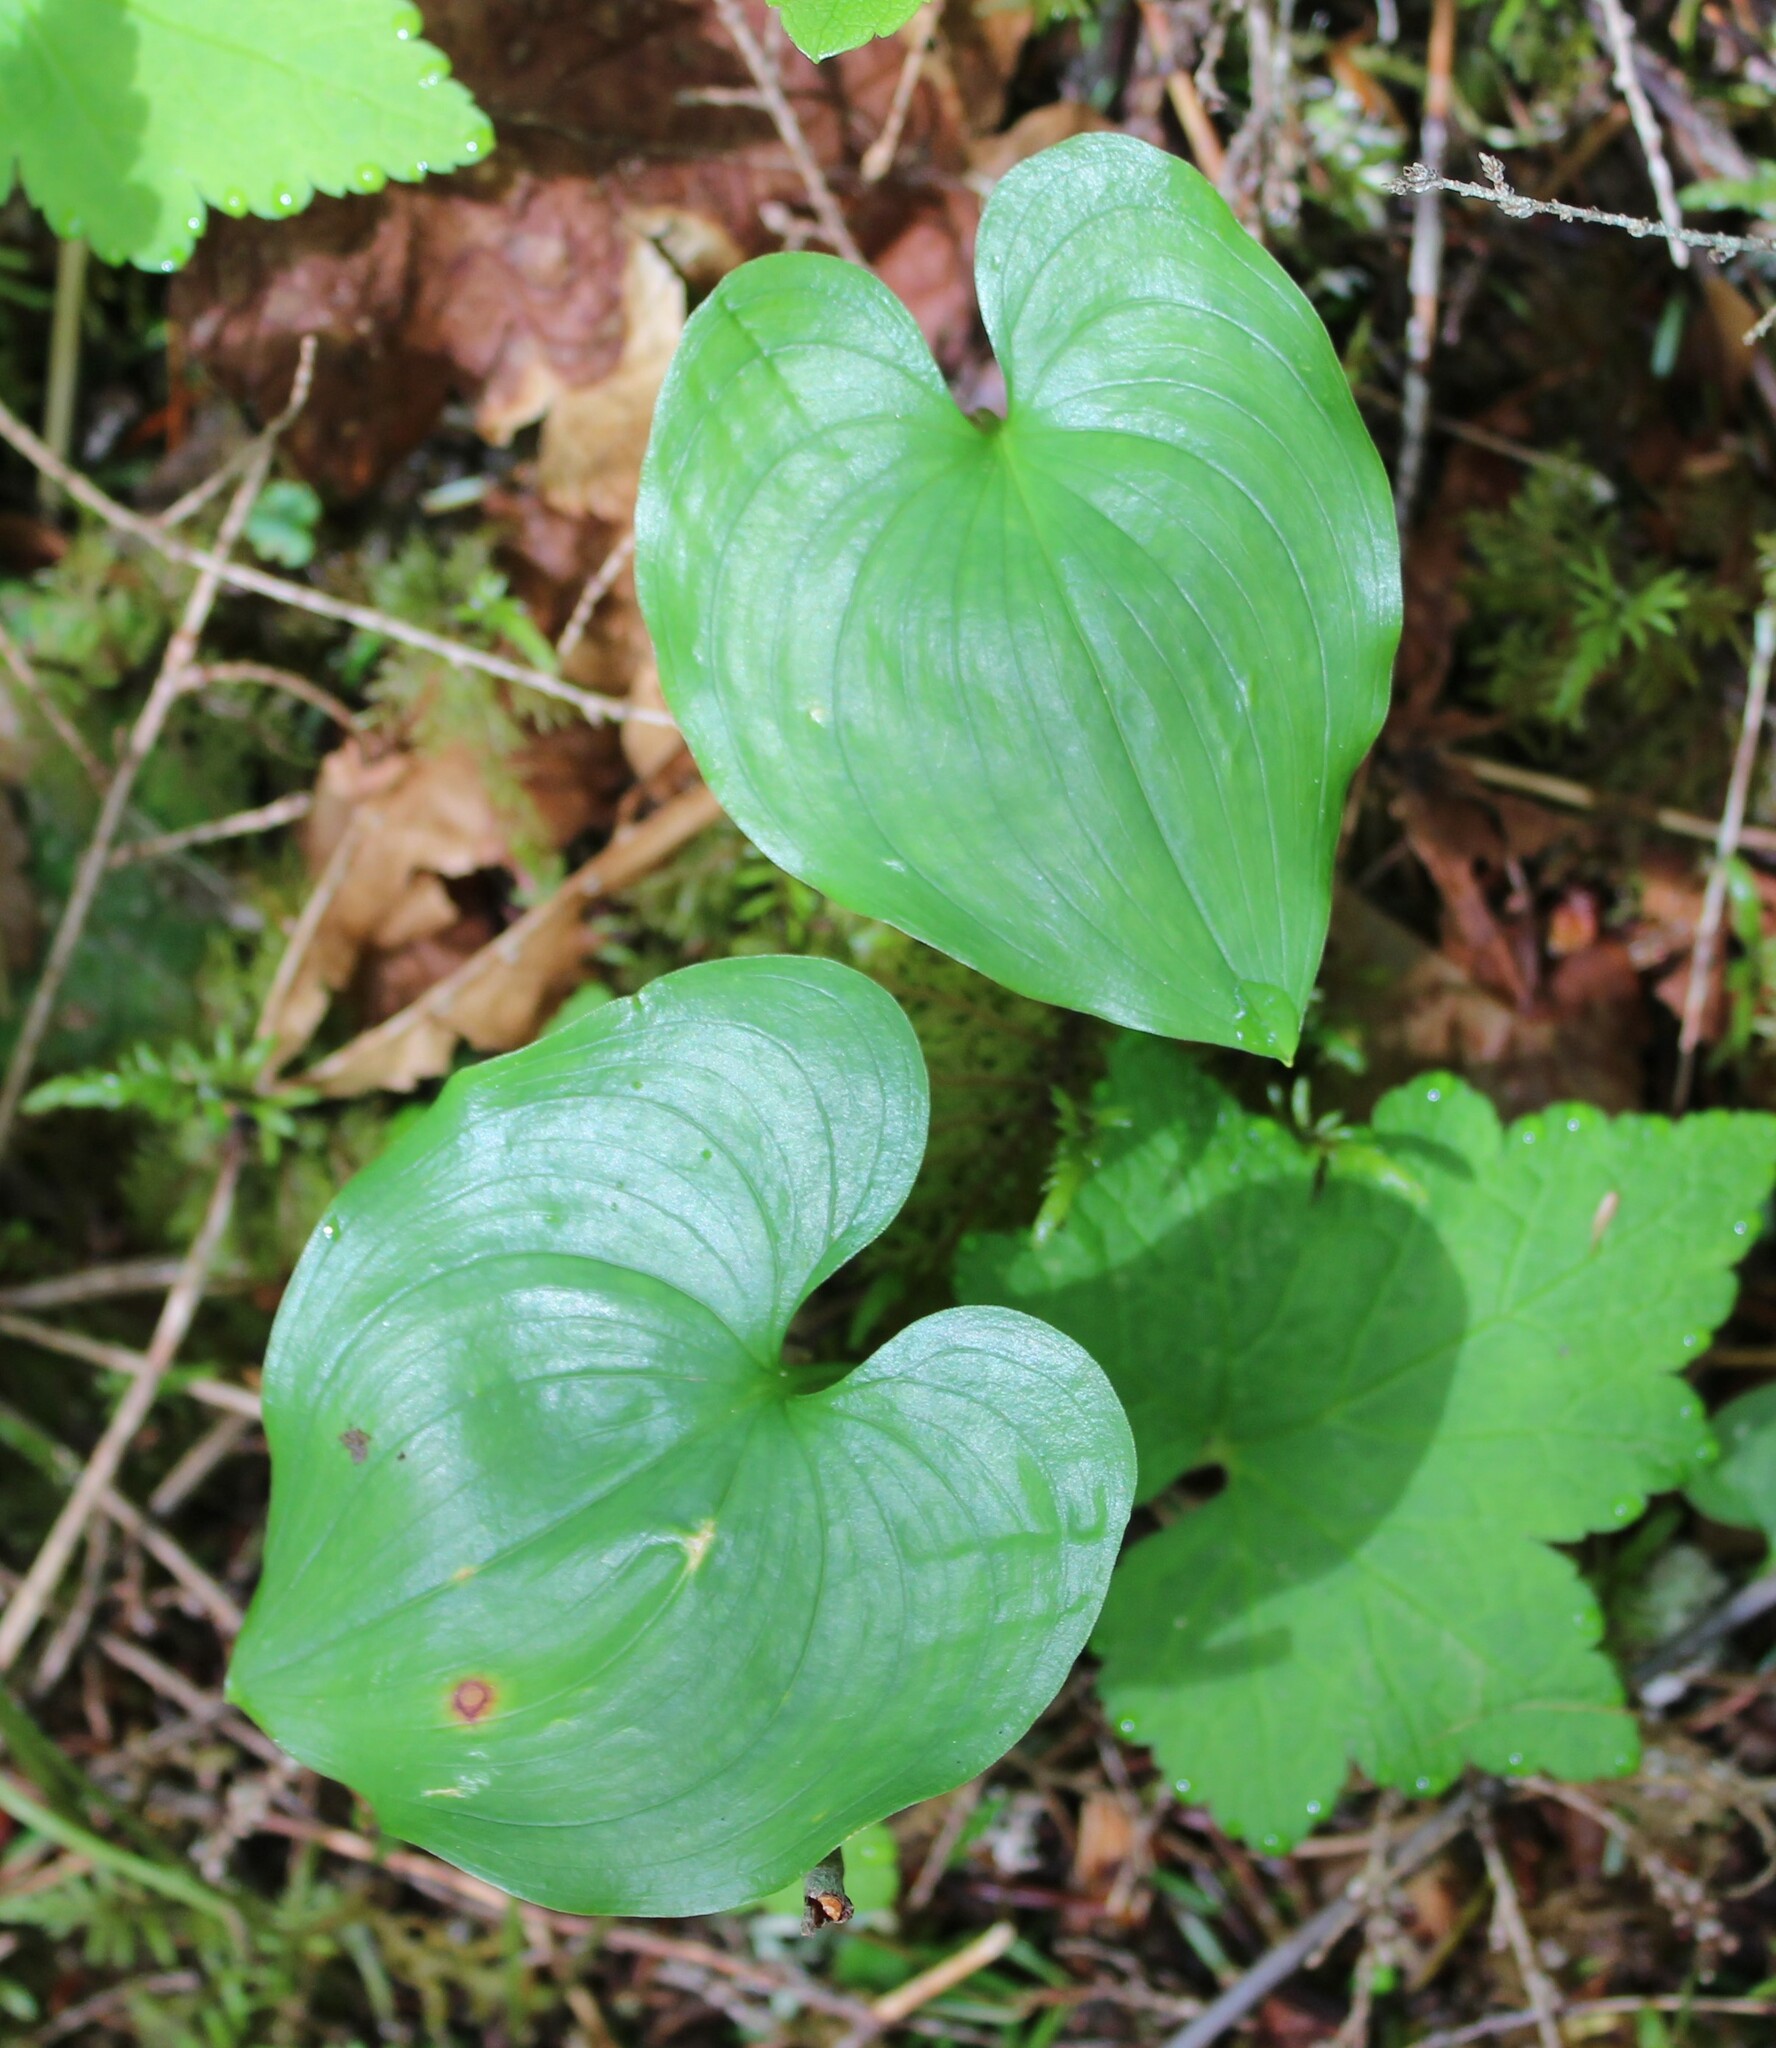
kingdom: Plantae
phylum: Tracheophyta
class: Liliopsida
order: Asparagales
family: Asparagaceae
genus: Maianthemum
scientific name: Maianthemum dilatatum
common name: False lily-of-the-valley
